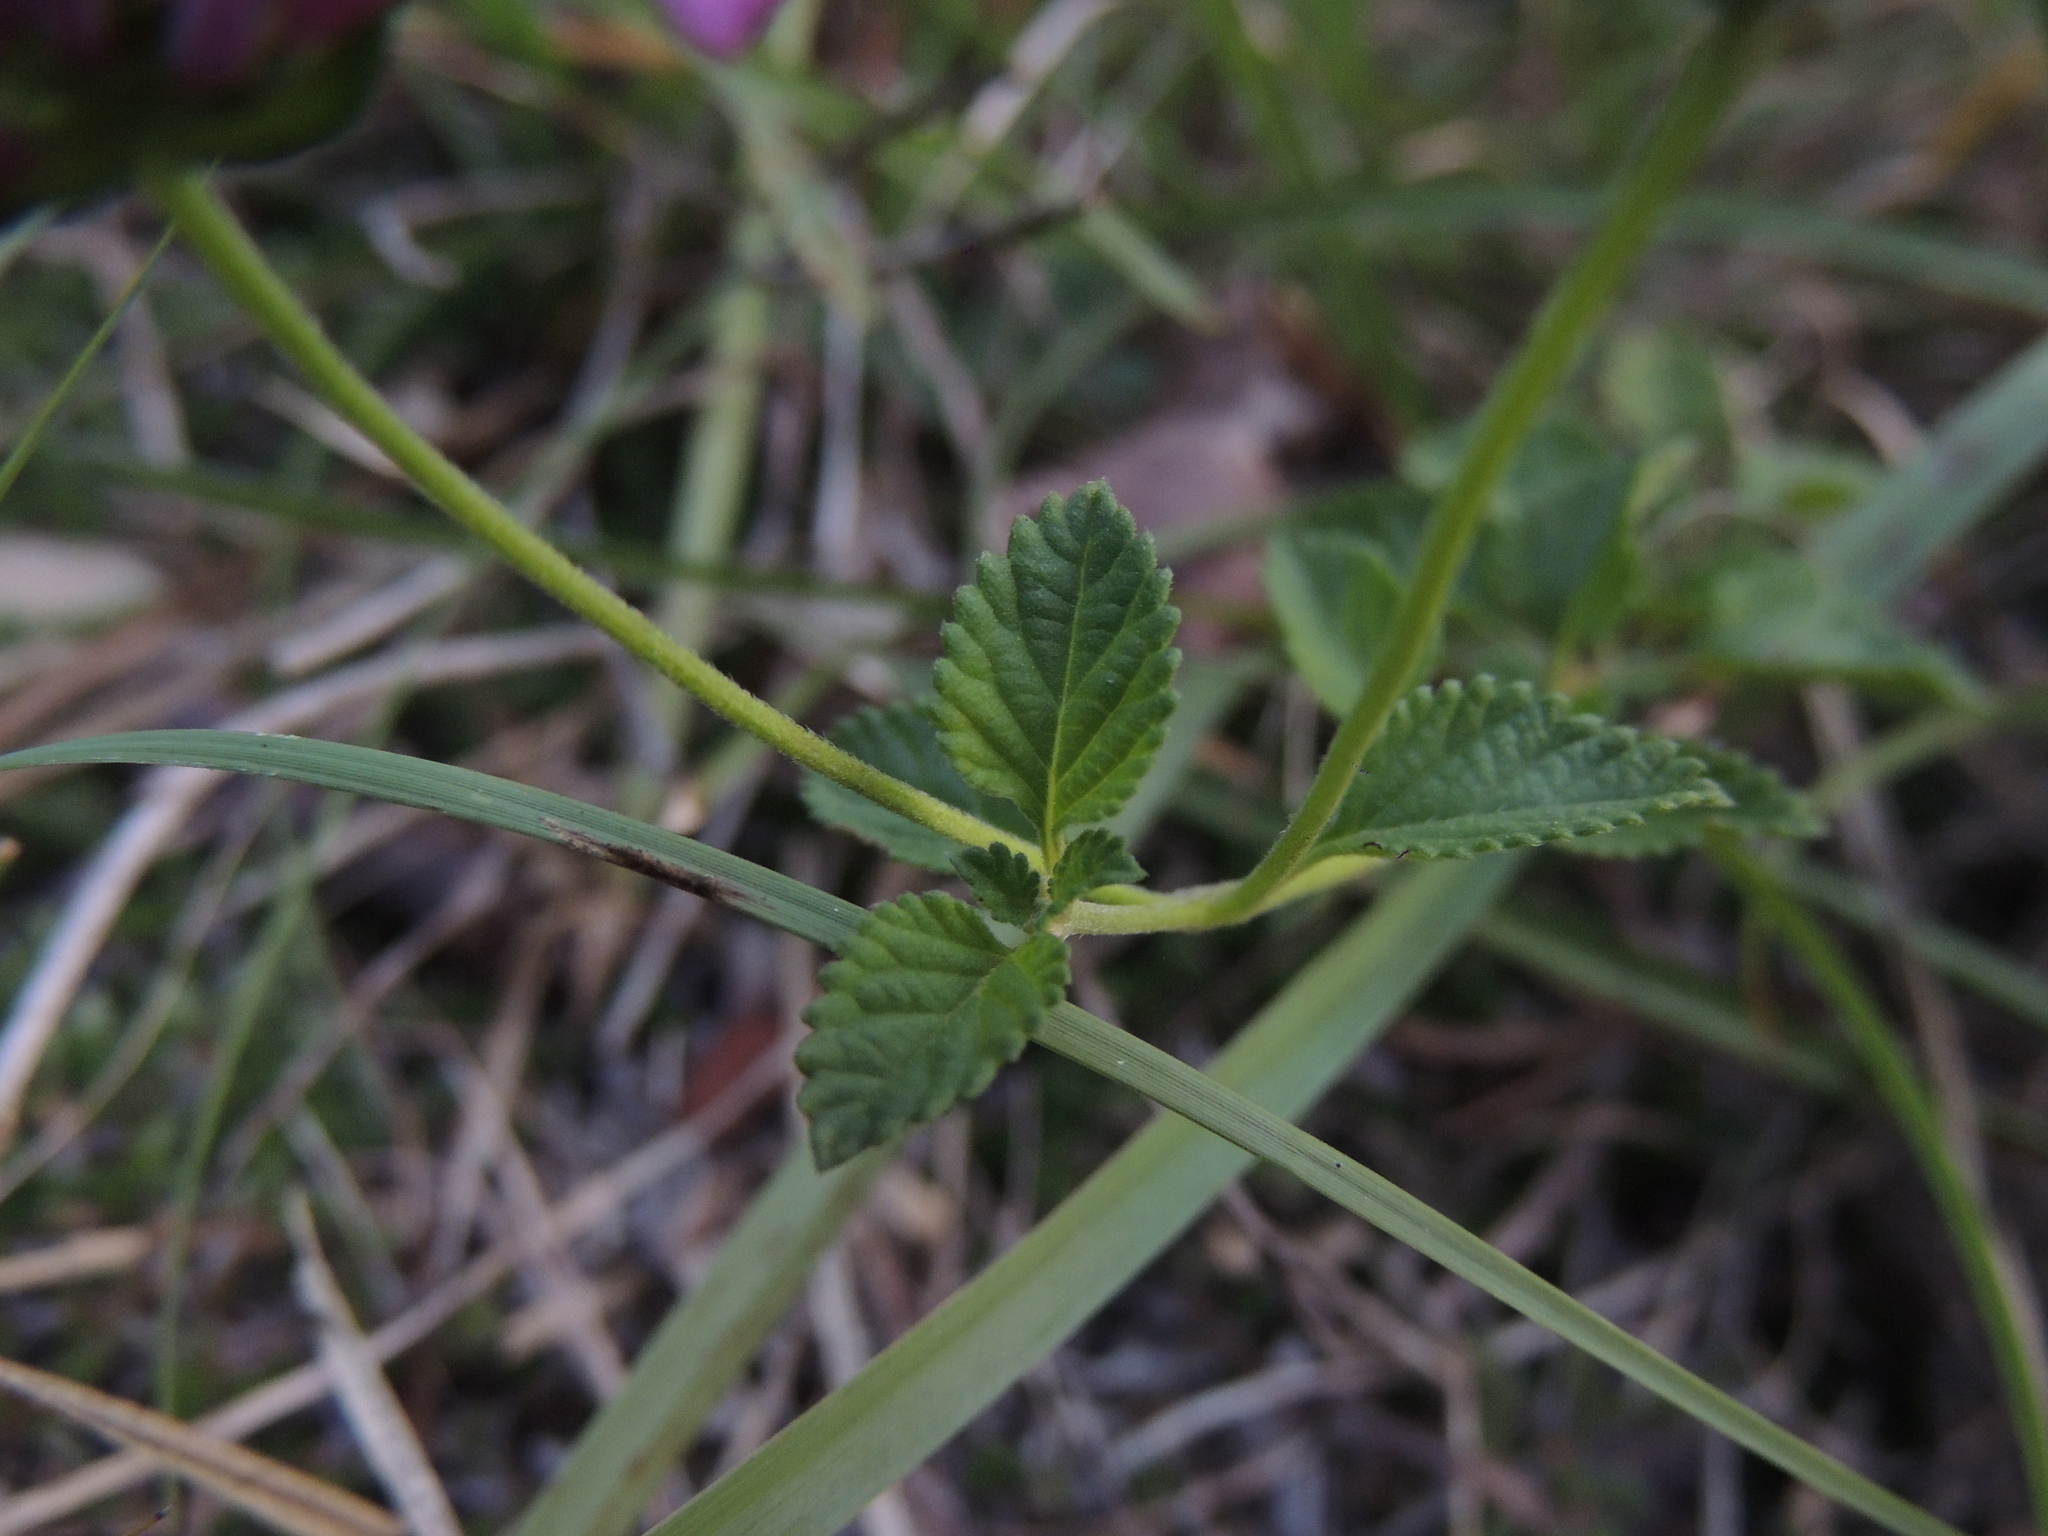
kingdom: Plantae
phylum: Tracheophyta
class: Magnoliopsida
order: Lamiales
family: Verbenaceae
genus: Lantana
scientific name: Lantana montevidensis
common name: Trailing shrubverbena
